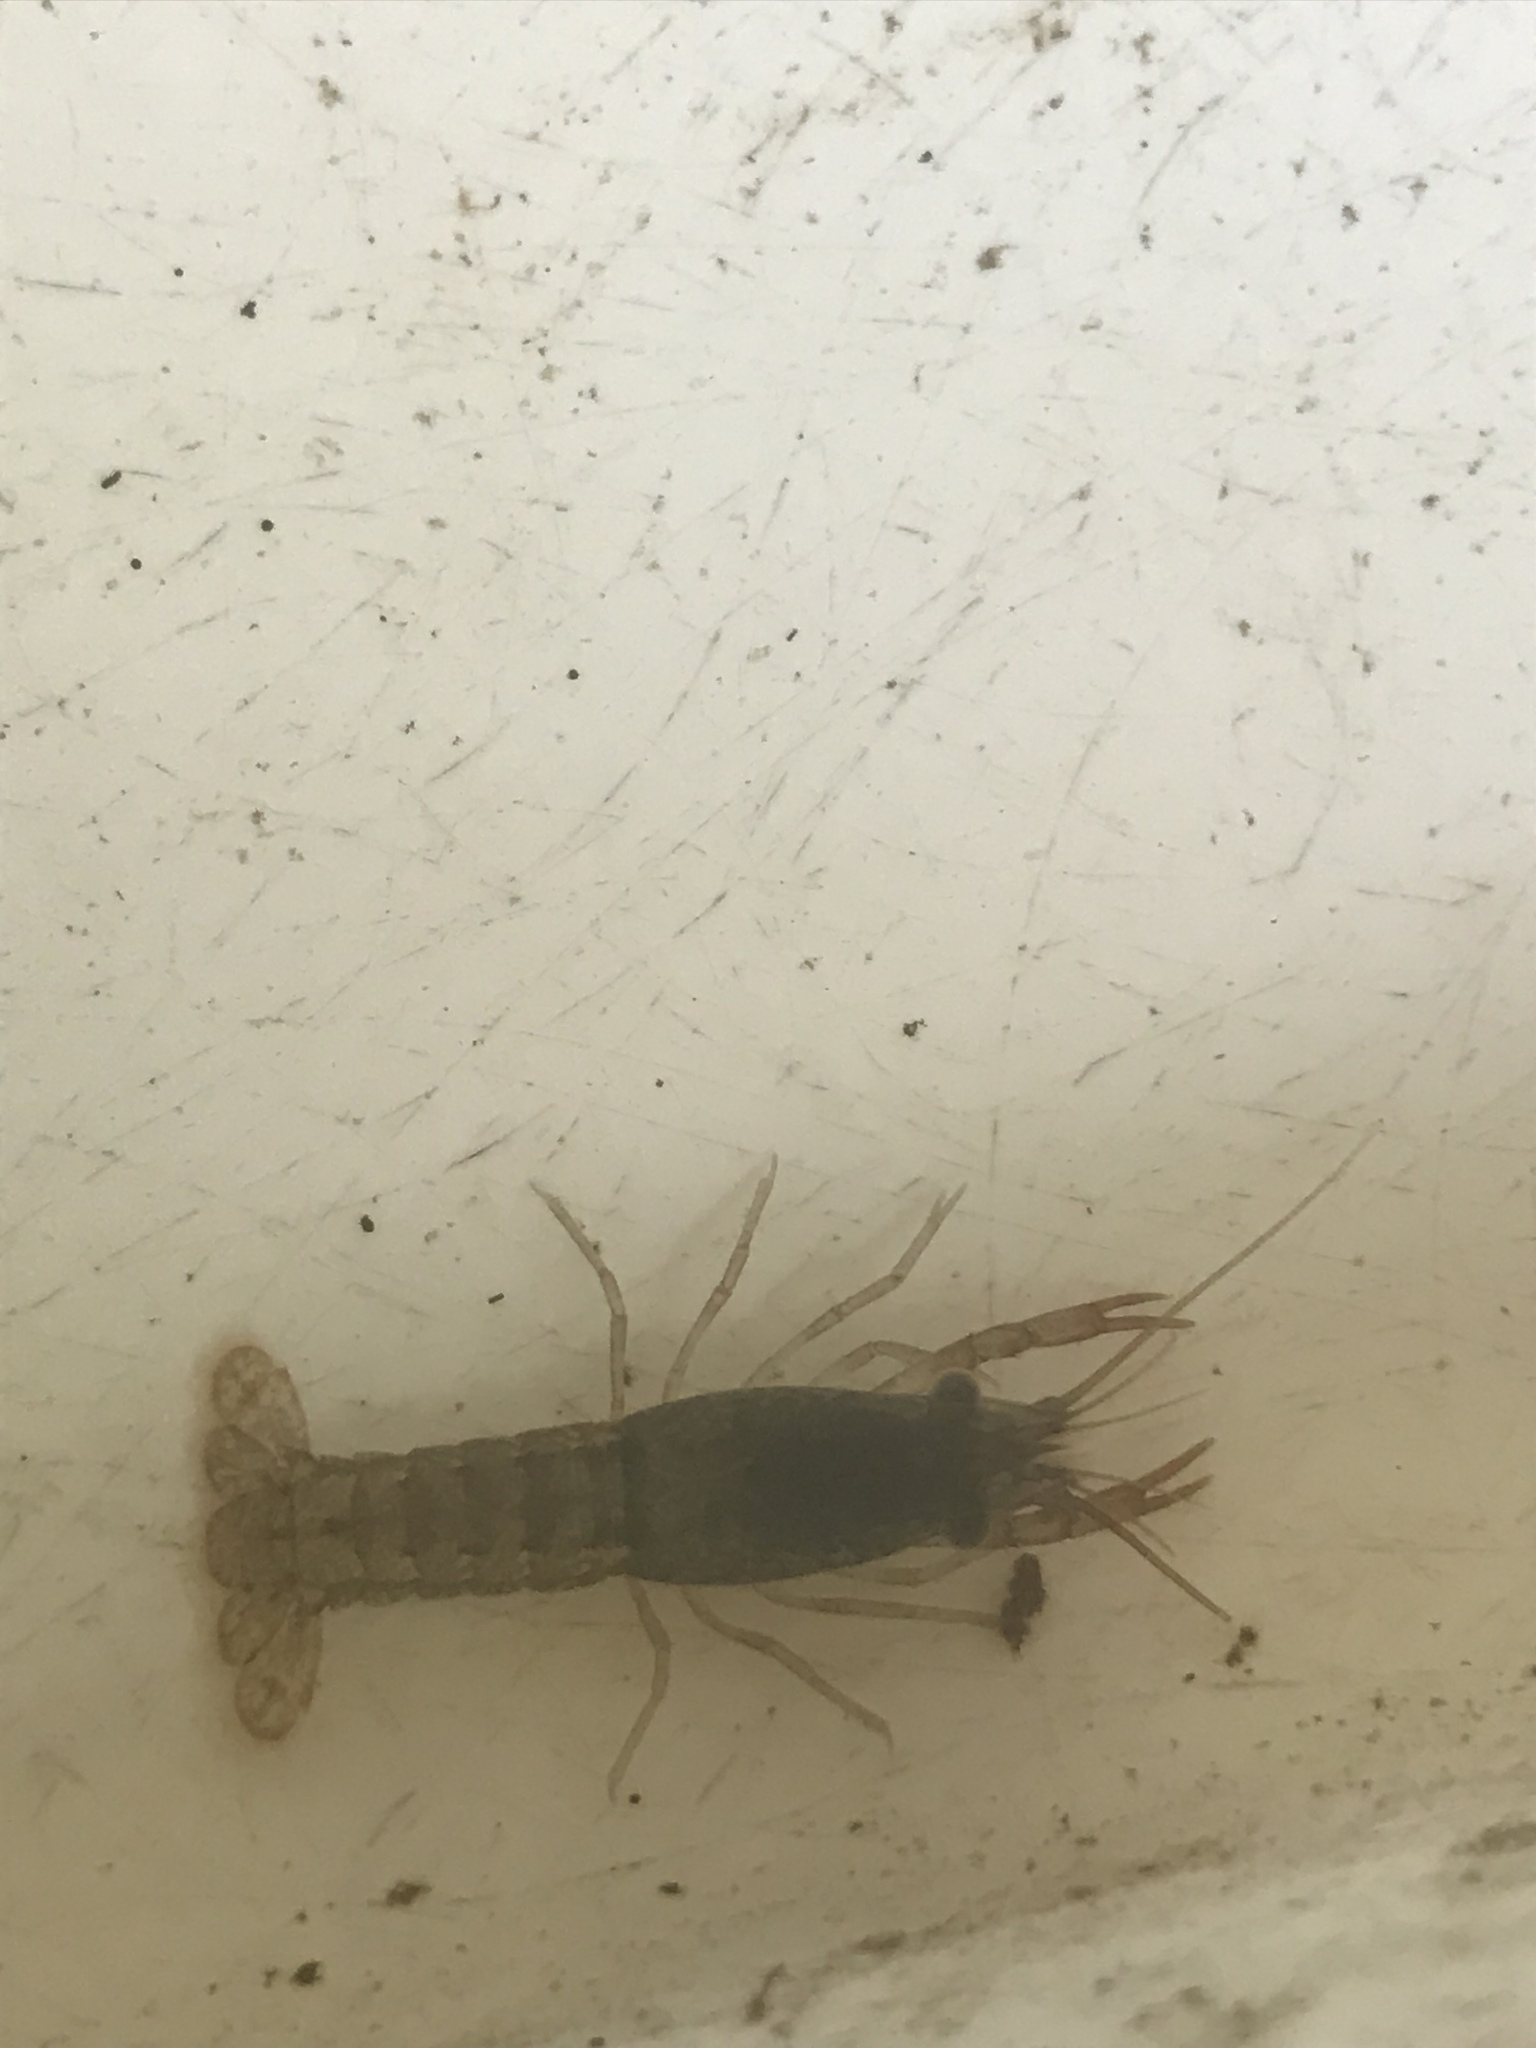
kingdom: Animalia
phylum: Arthropoda
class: Malacostraca
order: Decapoda
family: Cambaridae
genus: Procambarus
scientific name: Procambarus clarkii
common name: Red swamp crayfish
